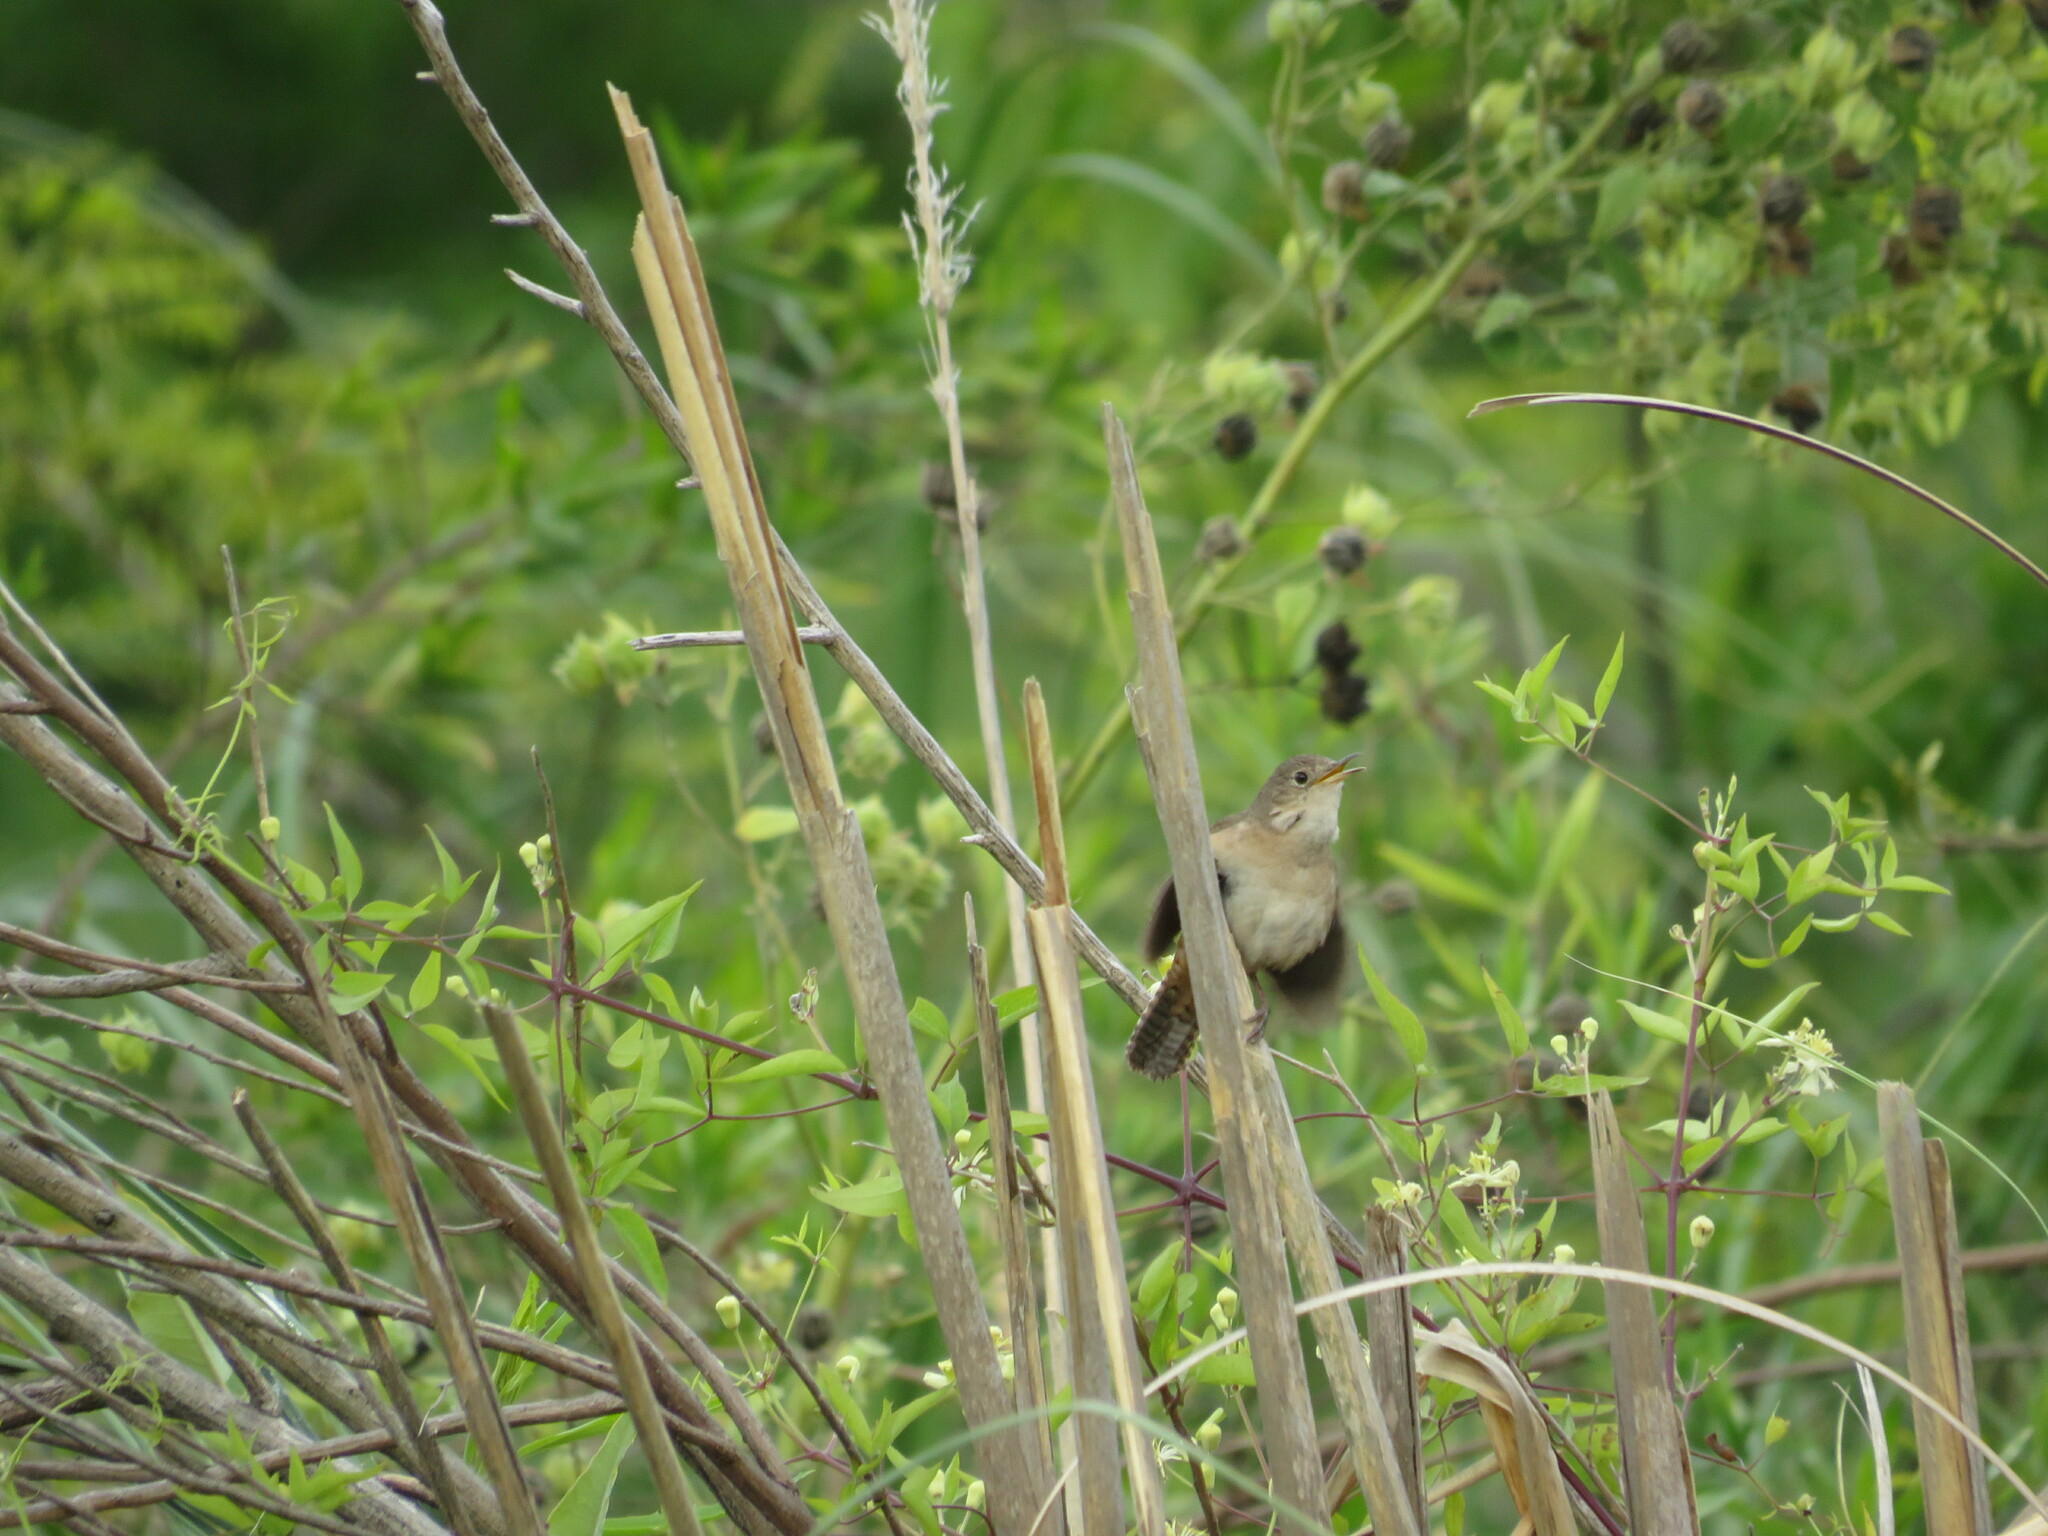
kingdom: Animalia
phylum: Chordata
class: Aves
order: Passeriformes
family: Troglodytidae
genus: Troglodytes
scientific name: Troglodytes aedon
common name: House wren
